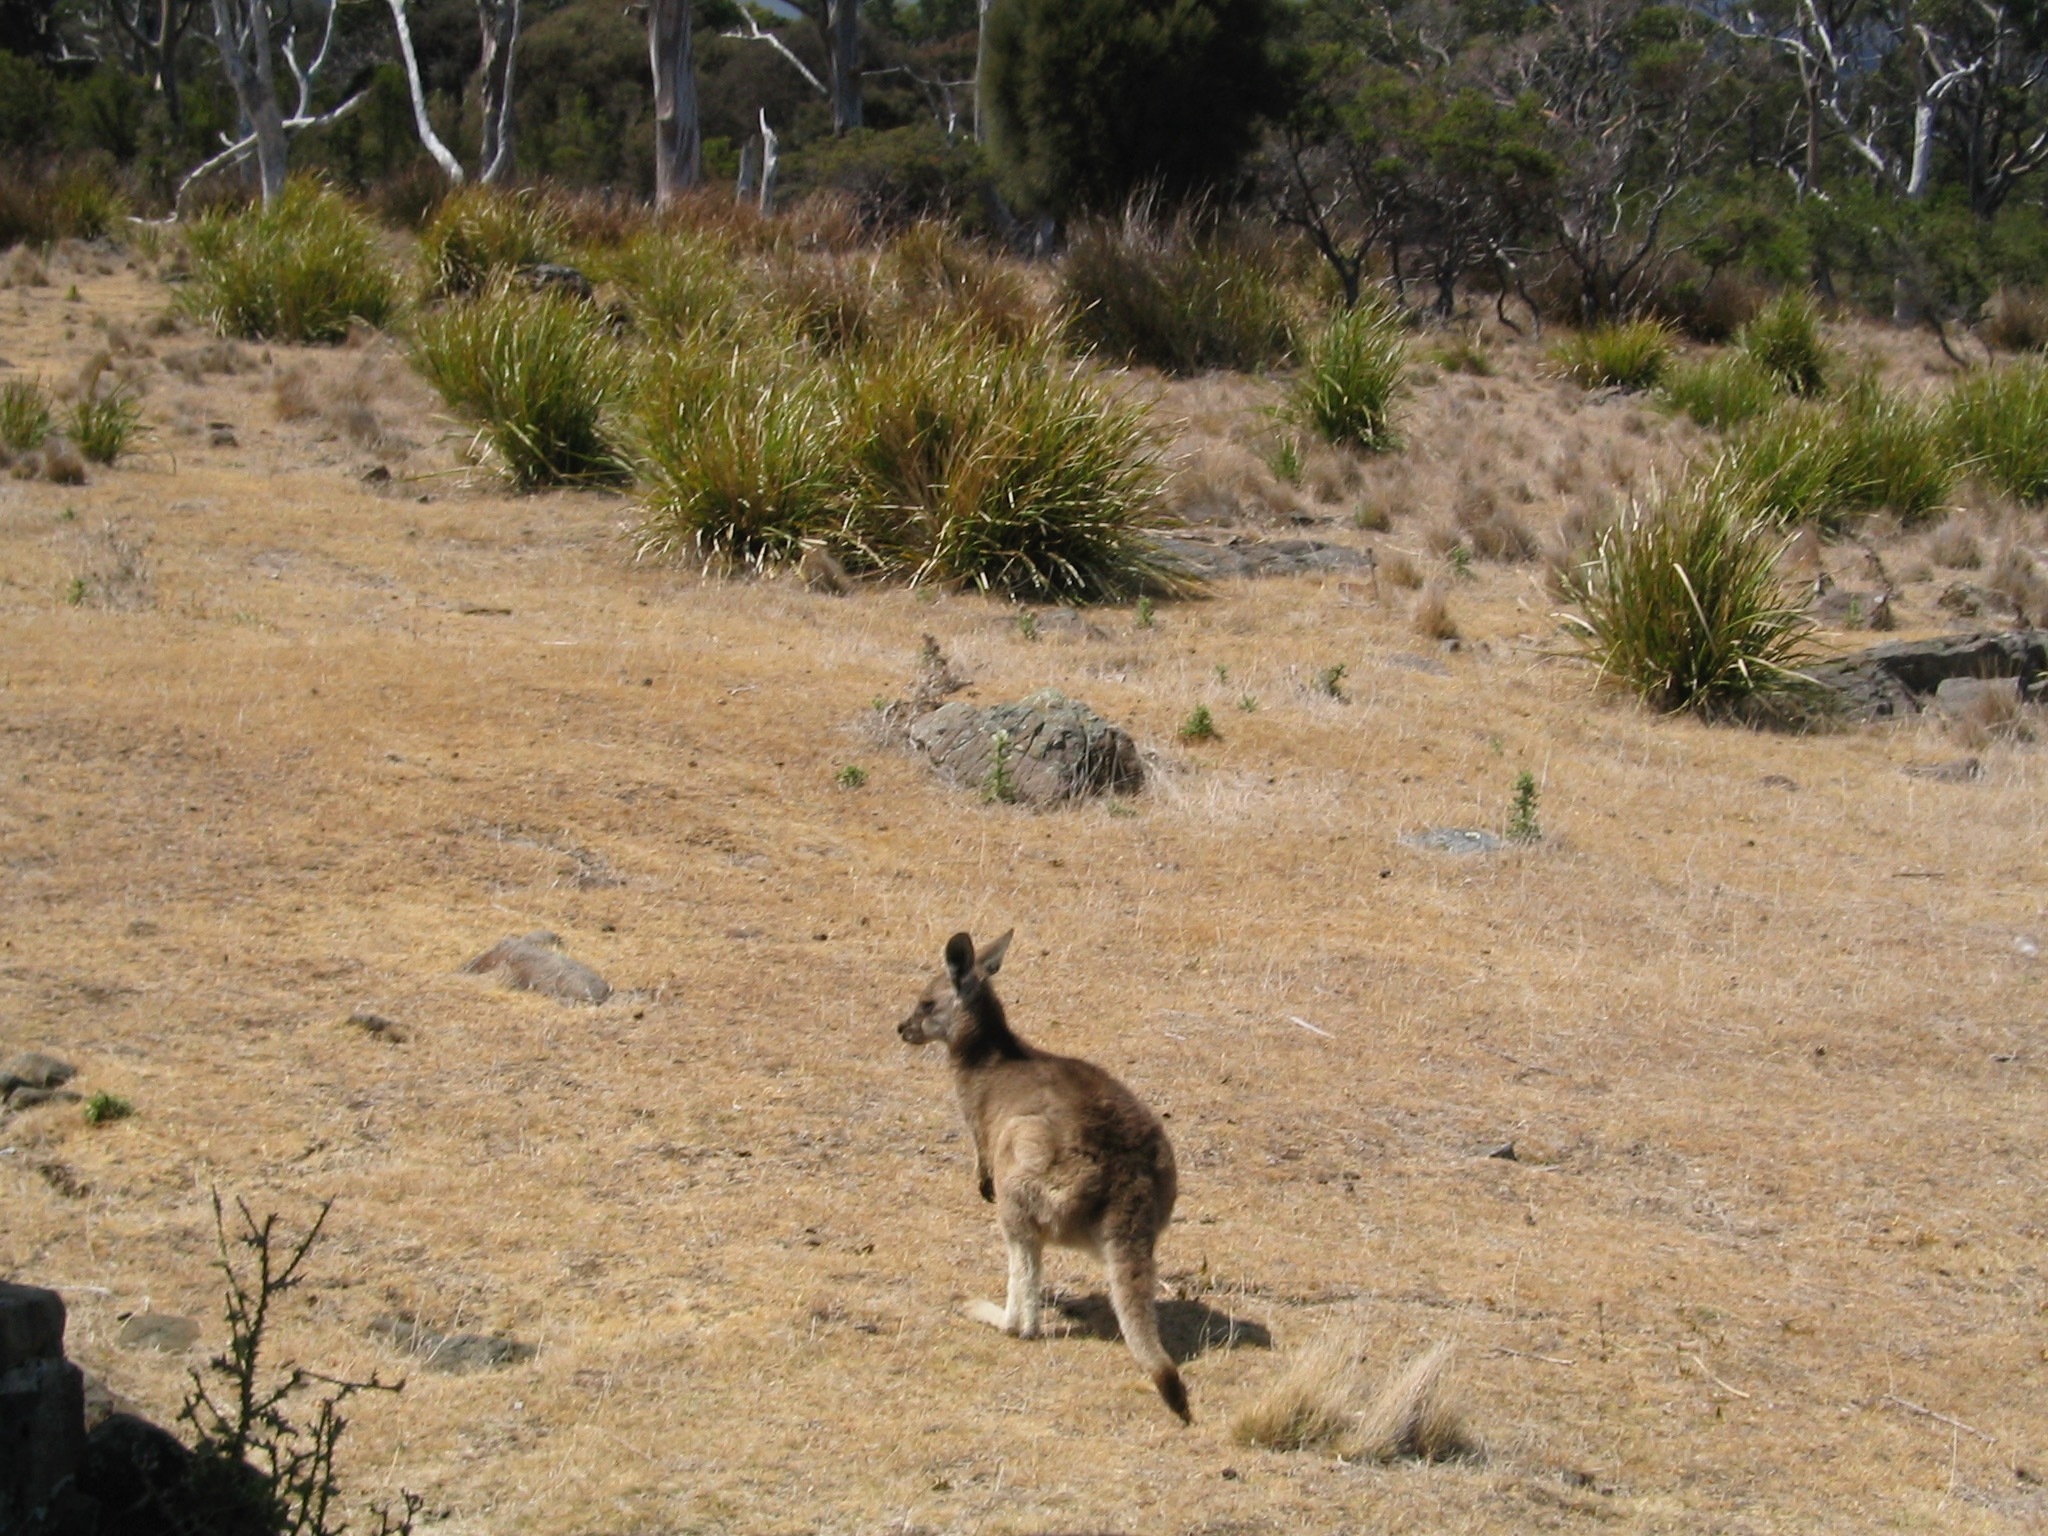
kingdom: Animalia
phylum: Chordata
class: Mammalia
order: Diprotodontia
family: Macropodidae
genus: Macropus
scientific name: Macropus giganteus
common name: Eastern grey kangaroo
